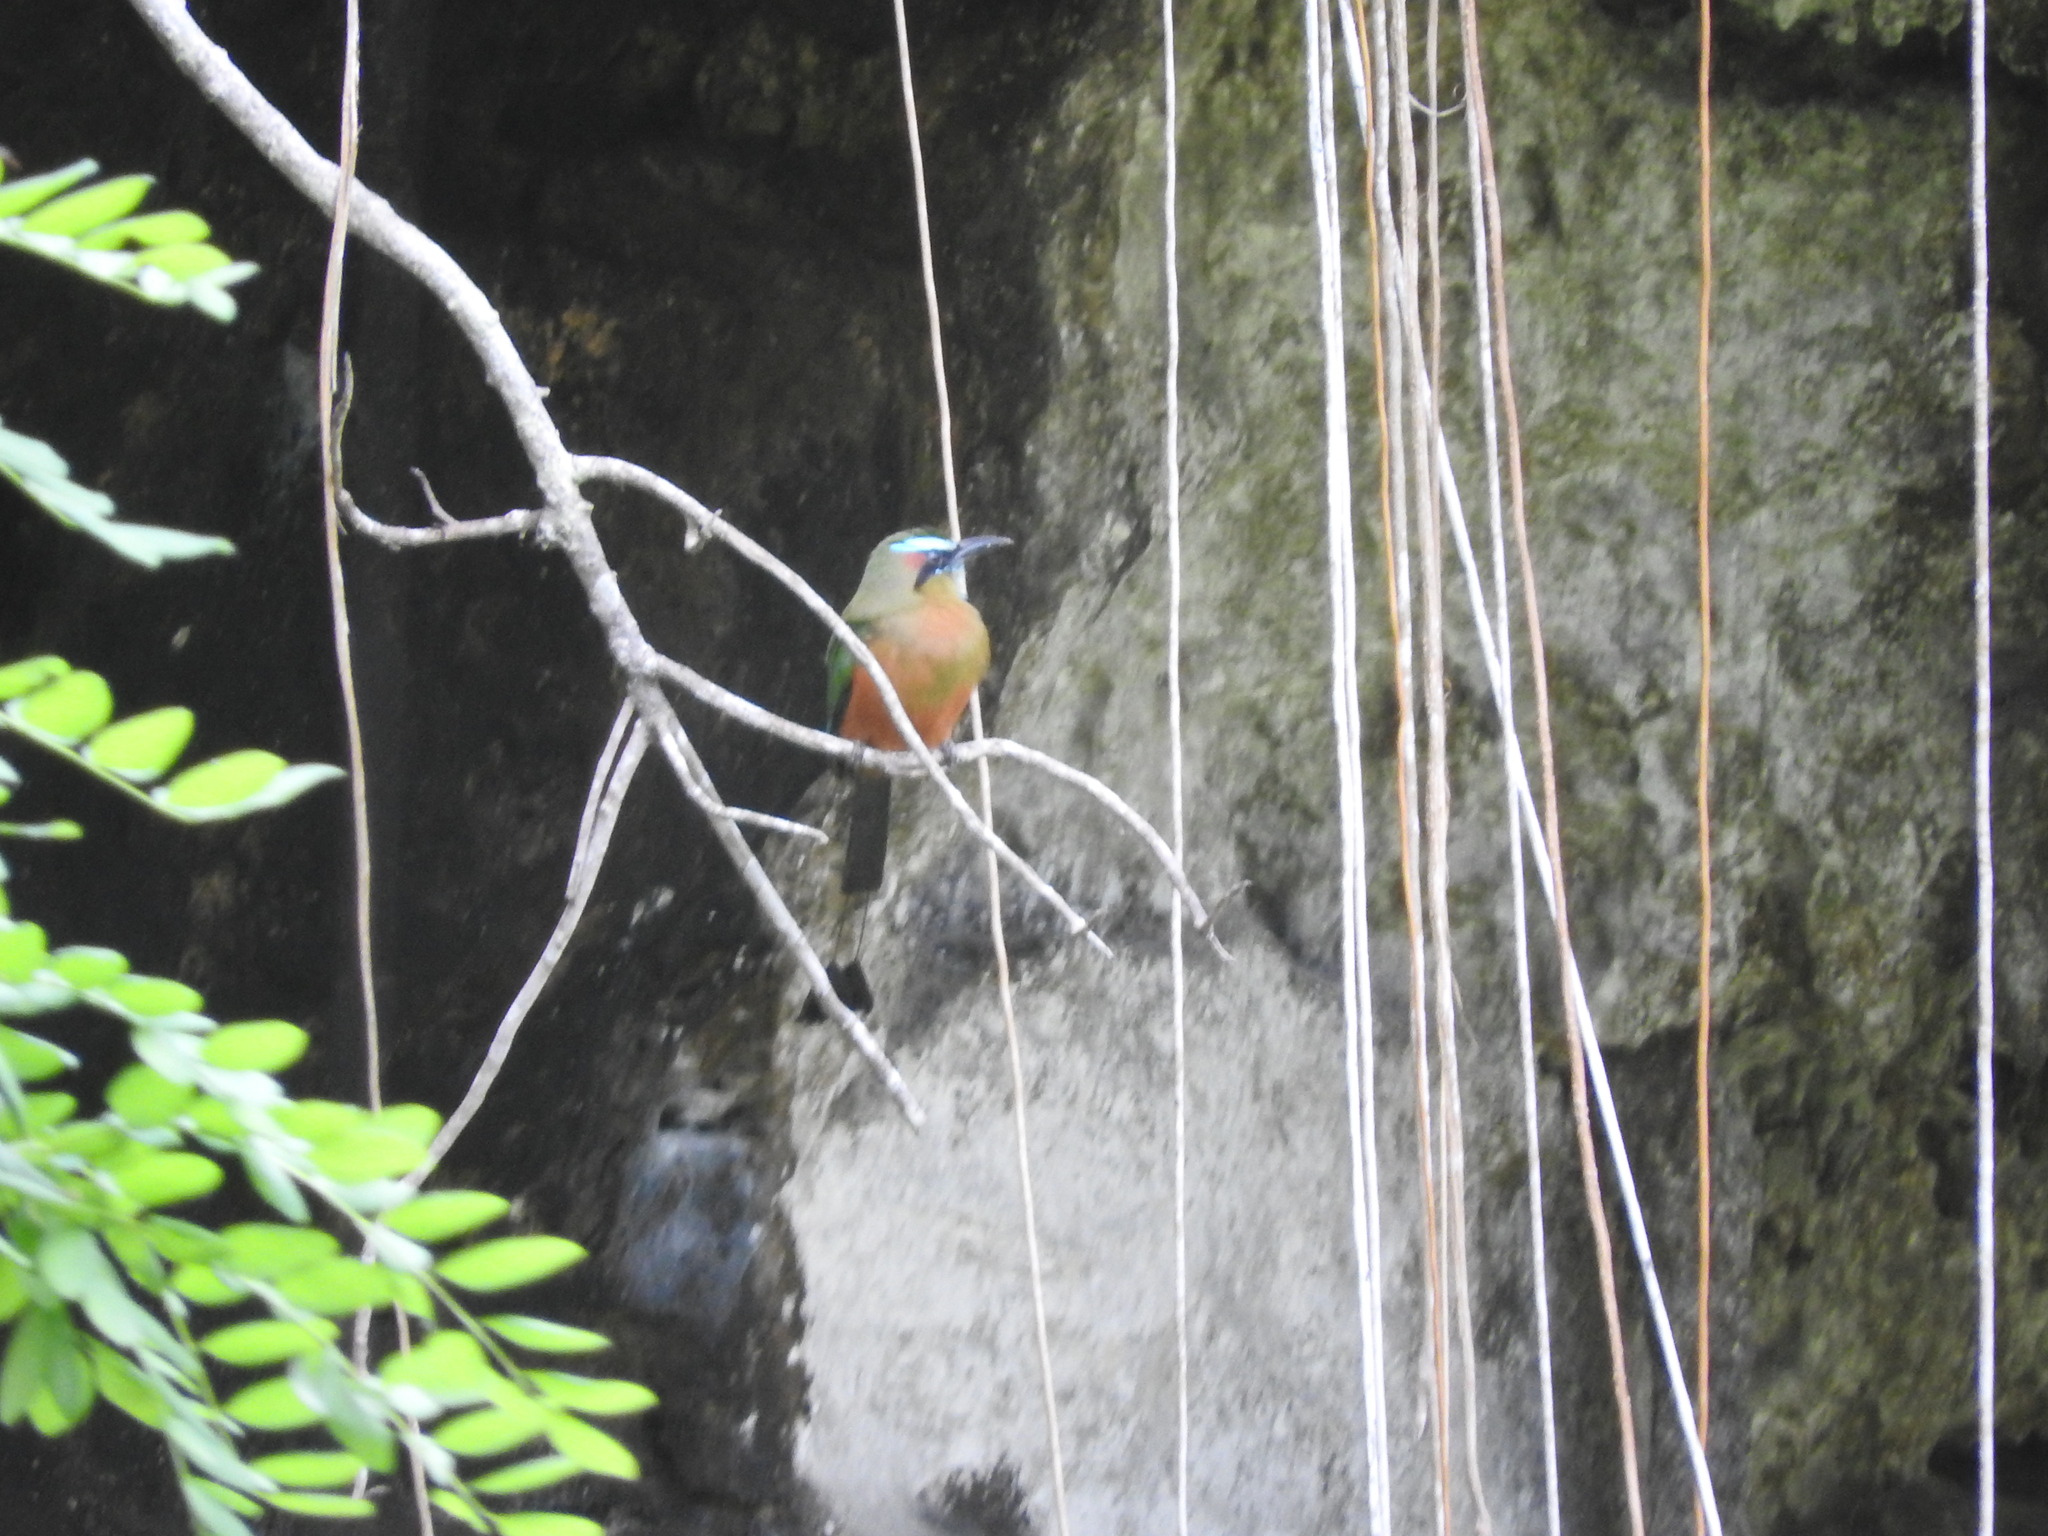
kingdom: Animalia
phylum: Chordata
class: Aves
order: Coraciiformes
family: Momotidae
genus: Eumomota
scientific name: Eumomota superciliosa
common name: Turquoise-browed motmot
